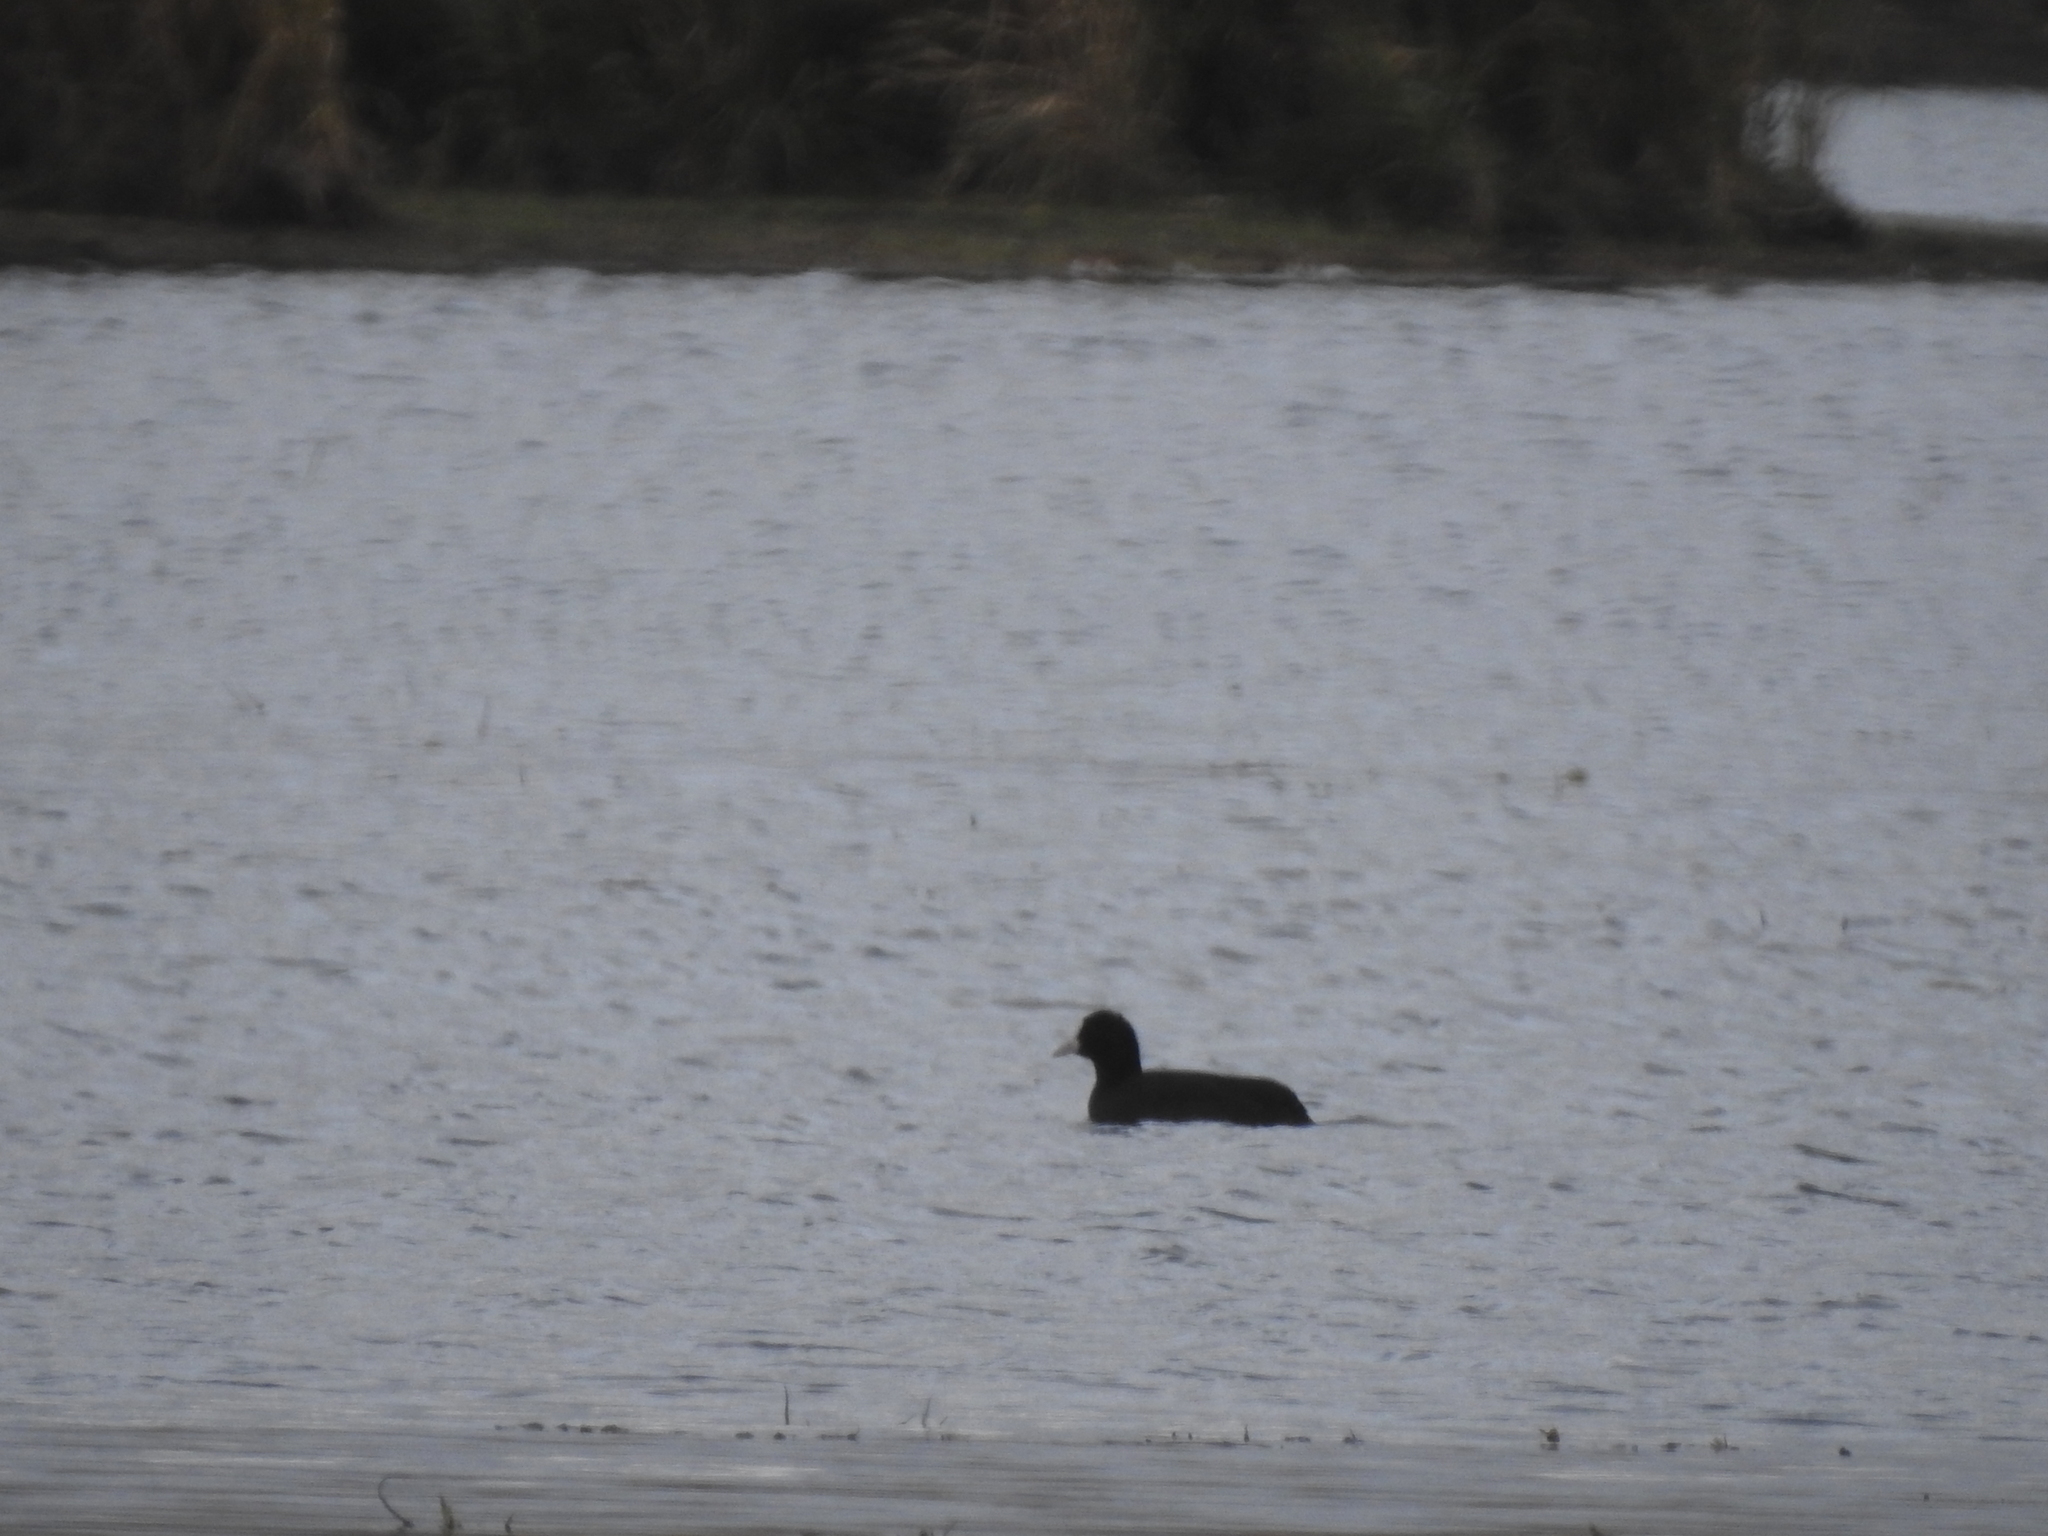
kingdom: Animalia
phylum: Chordata
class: Aves
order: Gruiformes
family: Rallidae
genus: Fulica
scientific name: Fulica atra
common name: Eurasian coot
